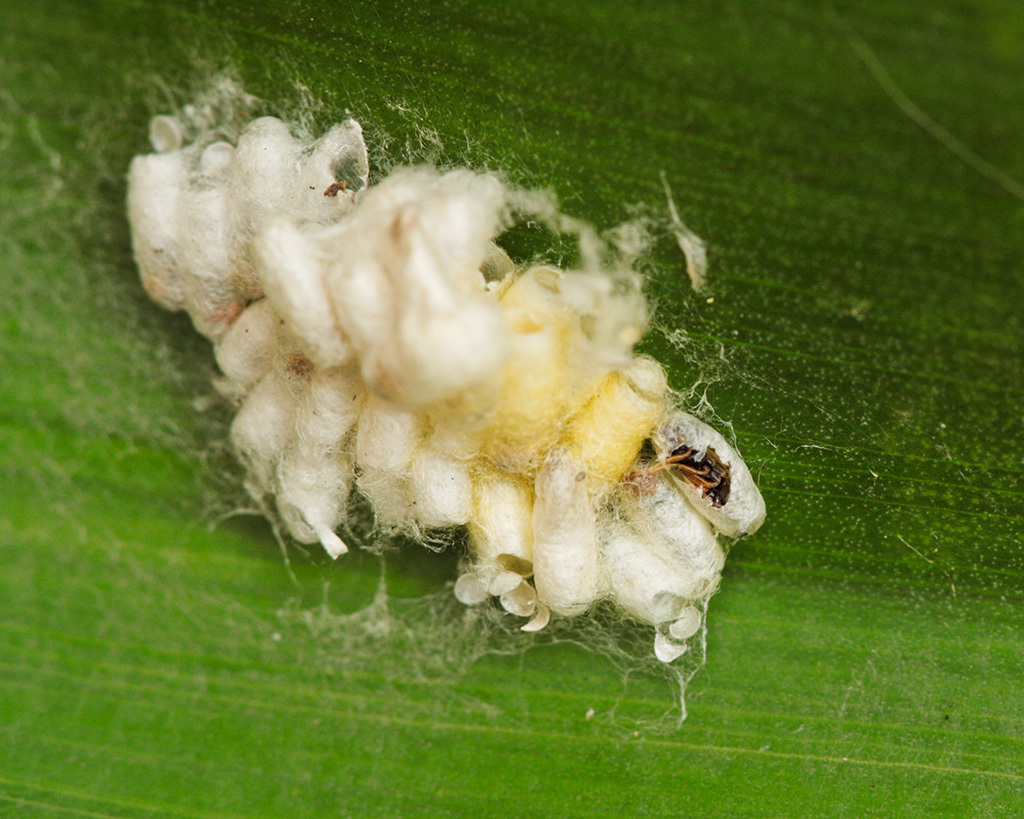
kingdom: Animalia
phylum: Arthropoda
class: Insecta
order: Hymenoptera
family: Braconidae
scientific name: Braconidae
